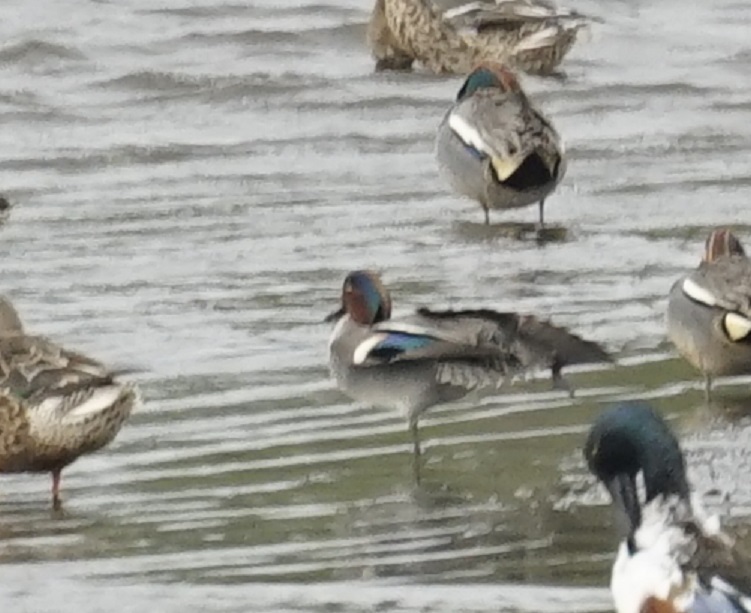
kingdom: Animalia
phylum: Chordata
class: Aves
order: Anseriformes
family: Anatidae
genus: Anas
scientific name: Anas crecca
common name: Eurasian teal
